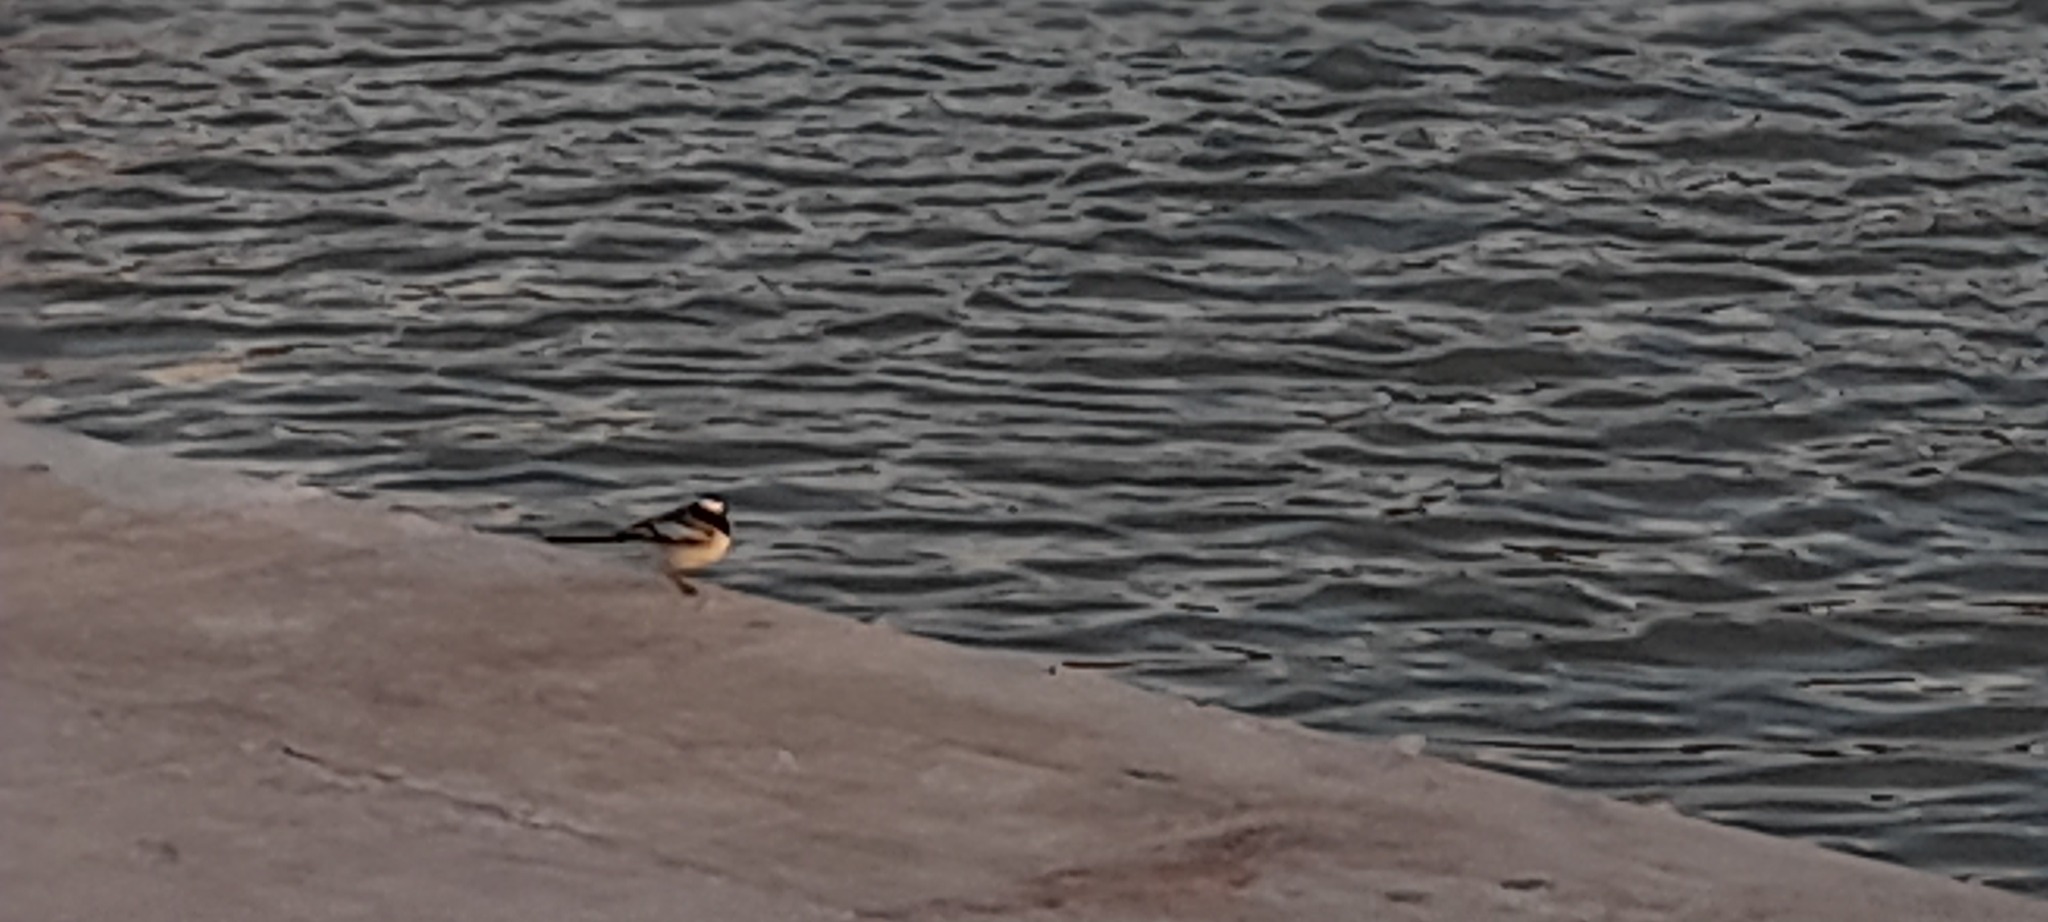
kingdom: Animalia
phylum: Chordata
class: Aves
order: Passeriformes
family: Motacillidae
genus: Motacilla
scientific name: Motacilla alba
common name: White wagtail
